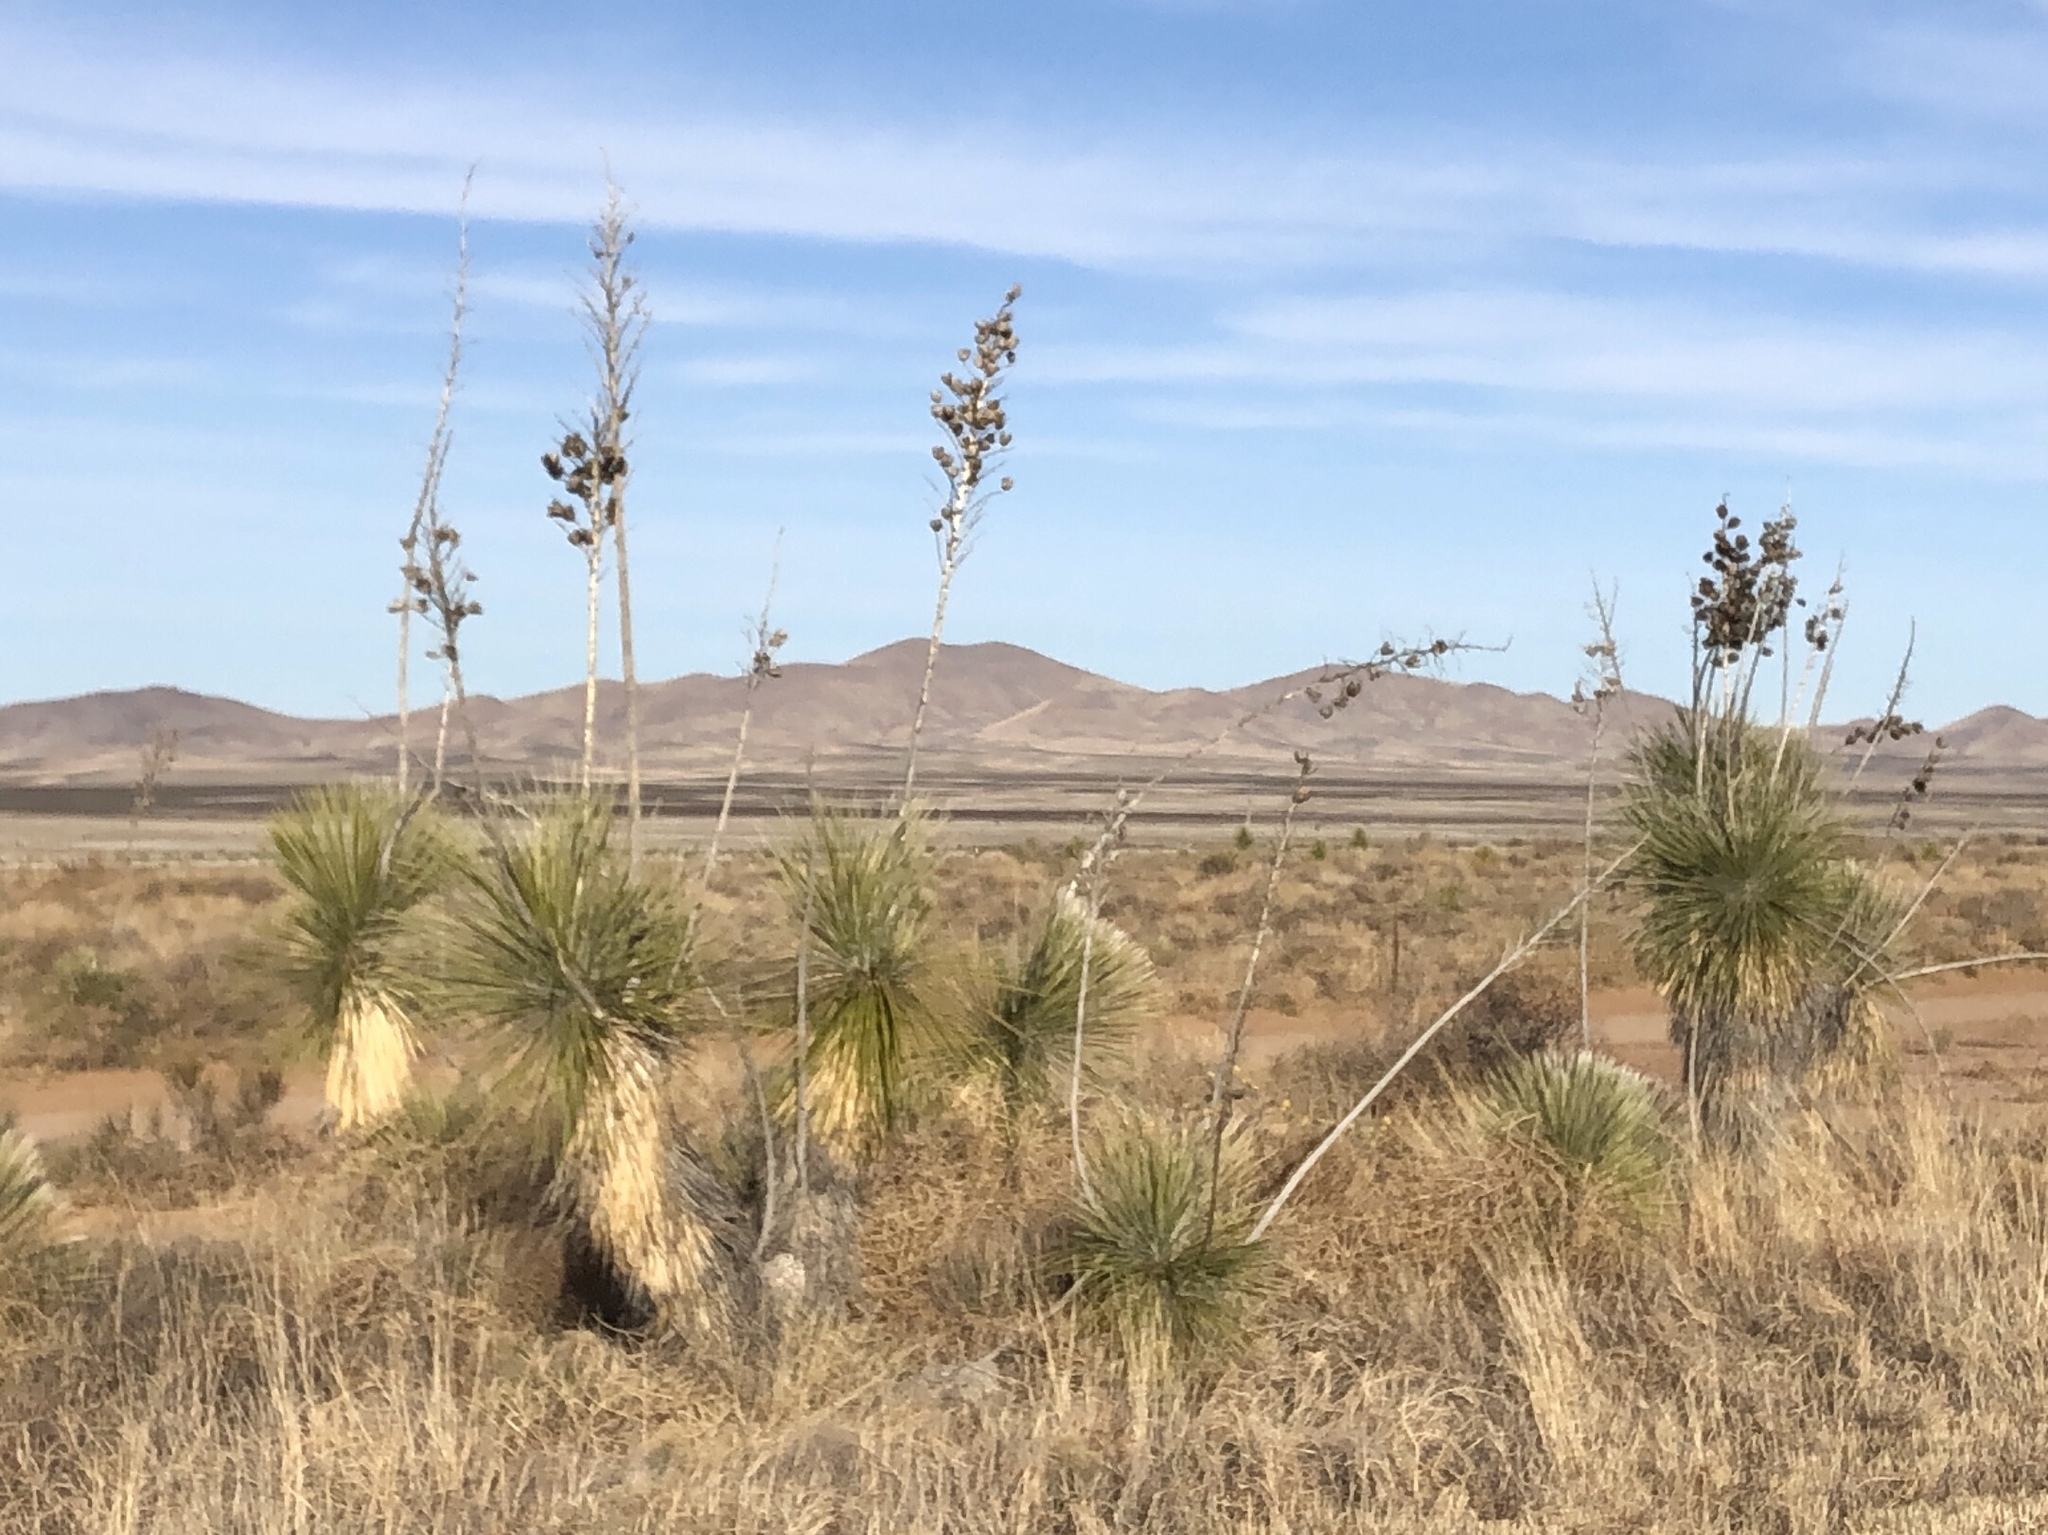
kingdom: Plantae
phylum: Tracheophyta
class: Liliopsida
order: Asparagales
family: Asparagaceae
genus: Yucca
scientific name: Yucca elata
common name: Palmella
